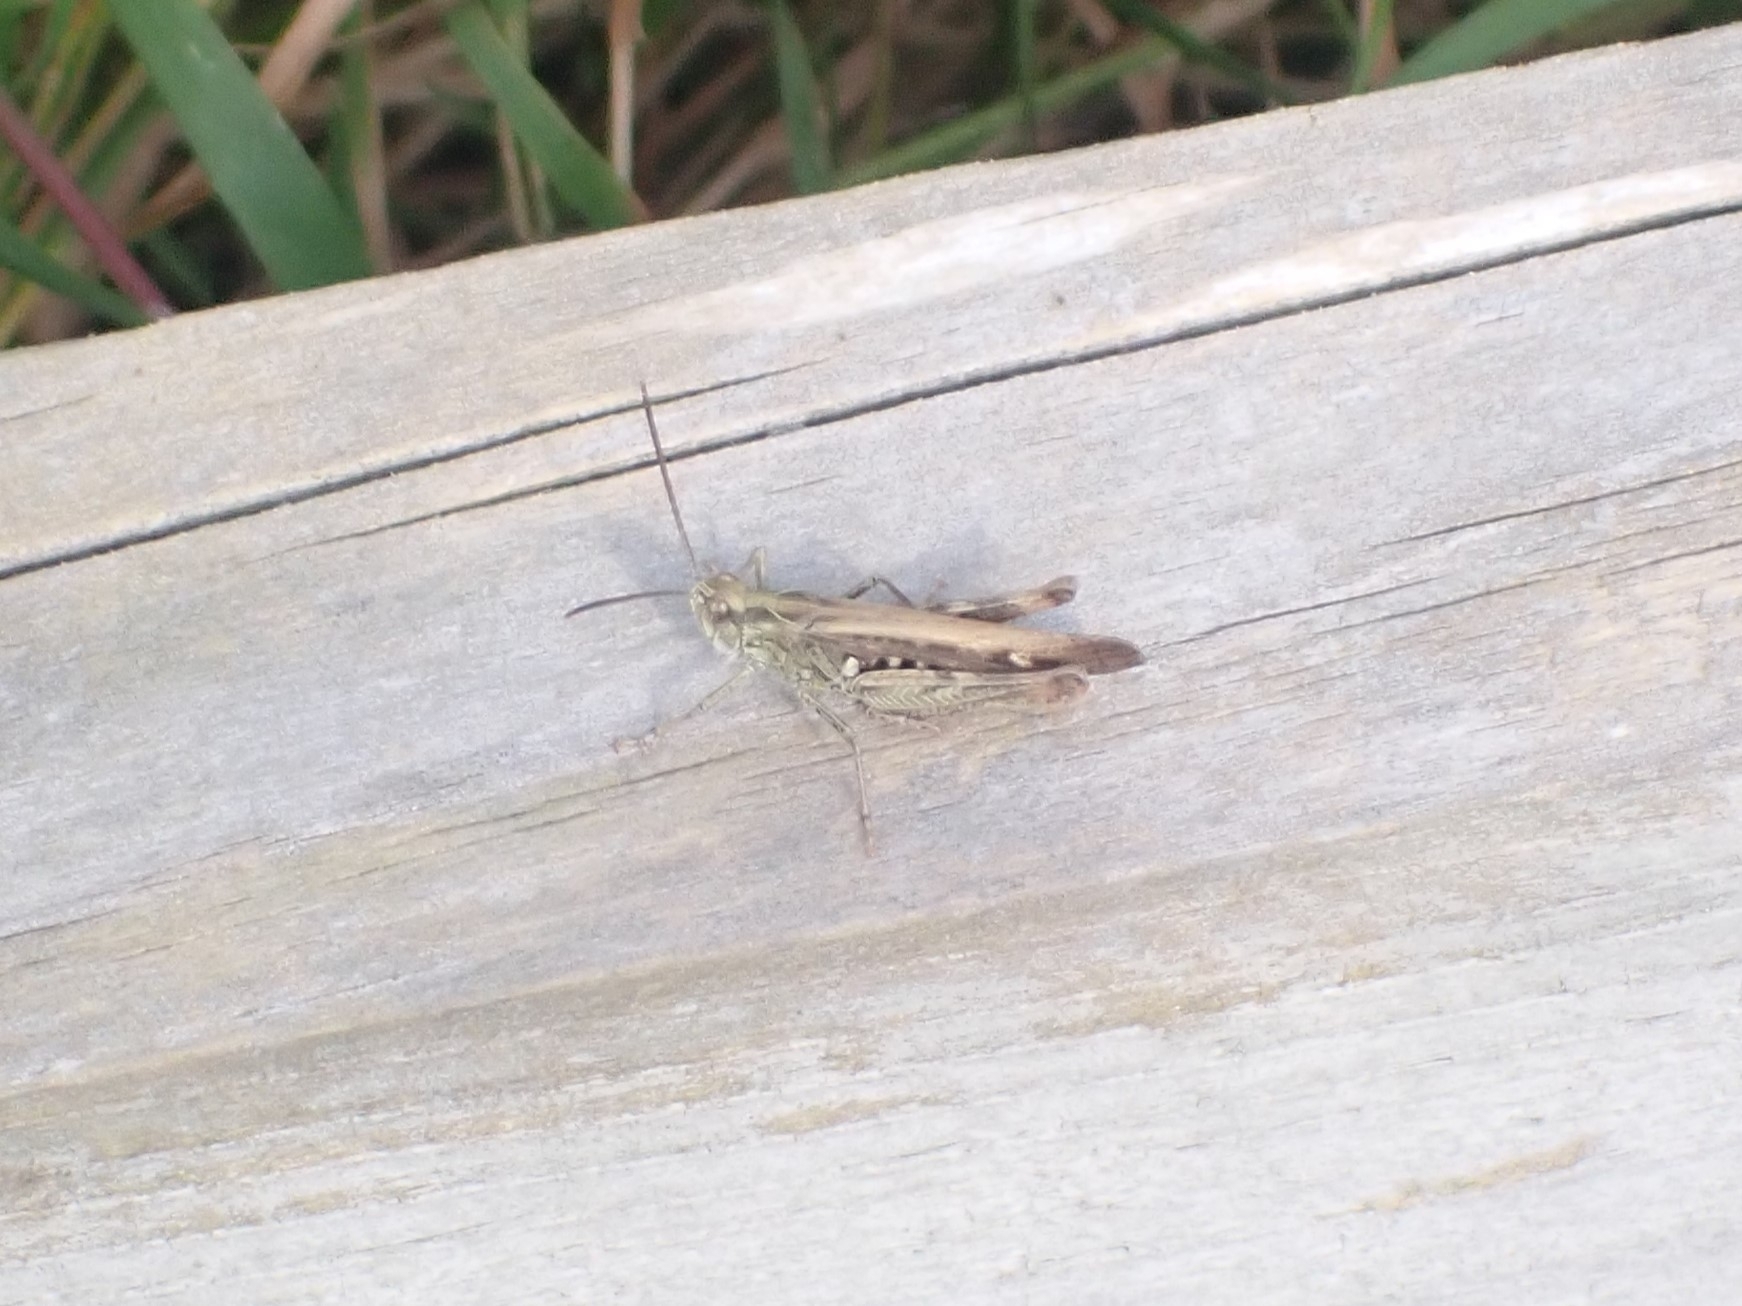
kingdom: Animalia
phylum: Arthropoda
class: Insecta
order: Orthoptera
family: Acrididae
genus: Chorthippus
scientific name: Chorthippus brunneus
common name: Field grasshopper
